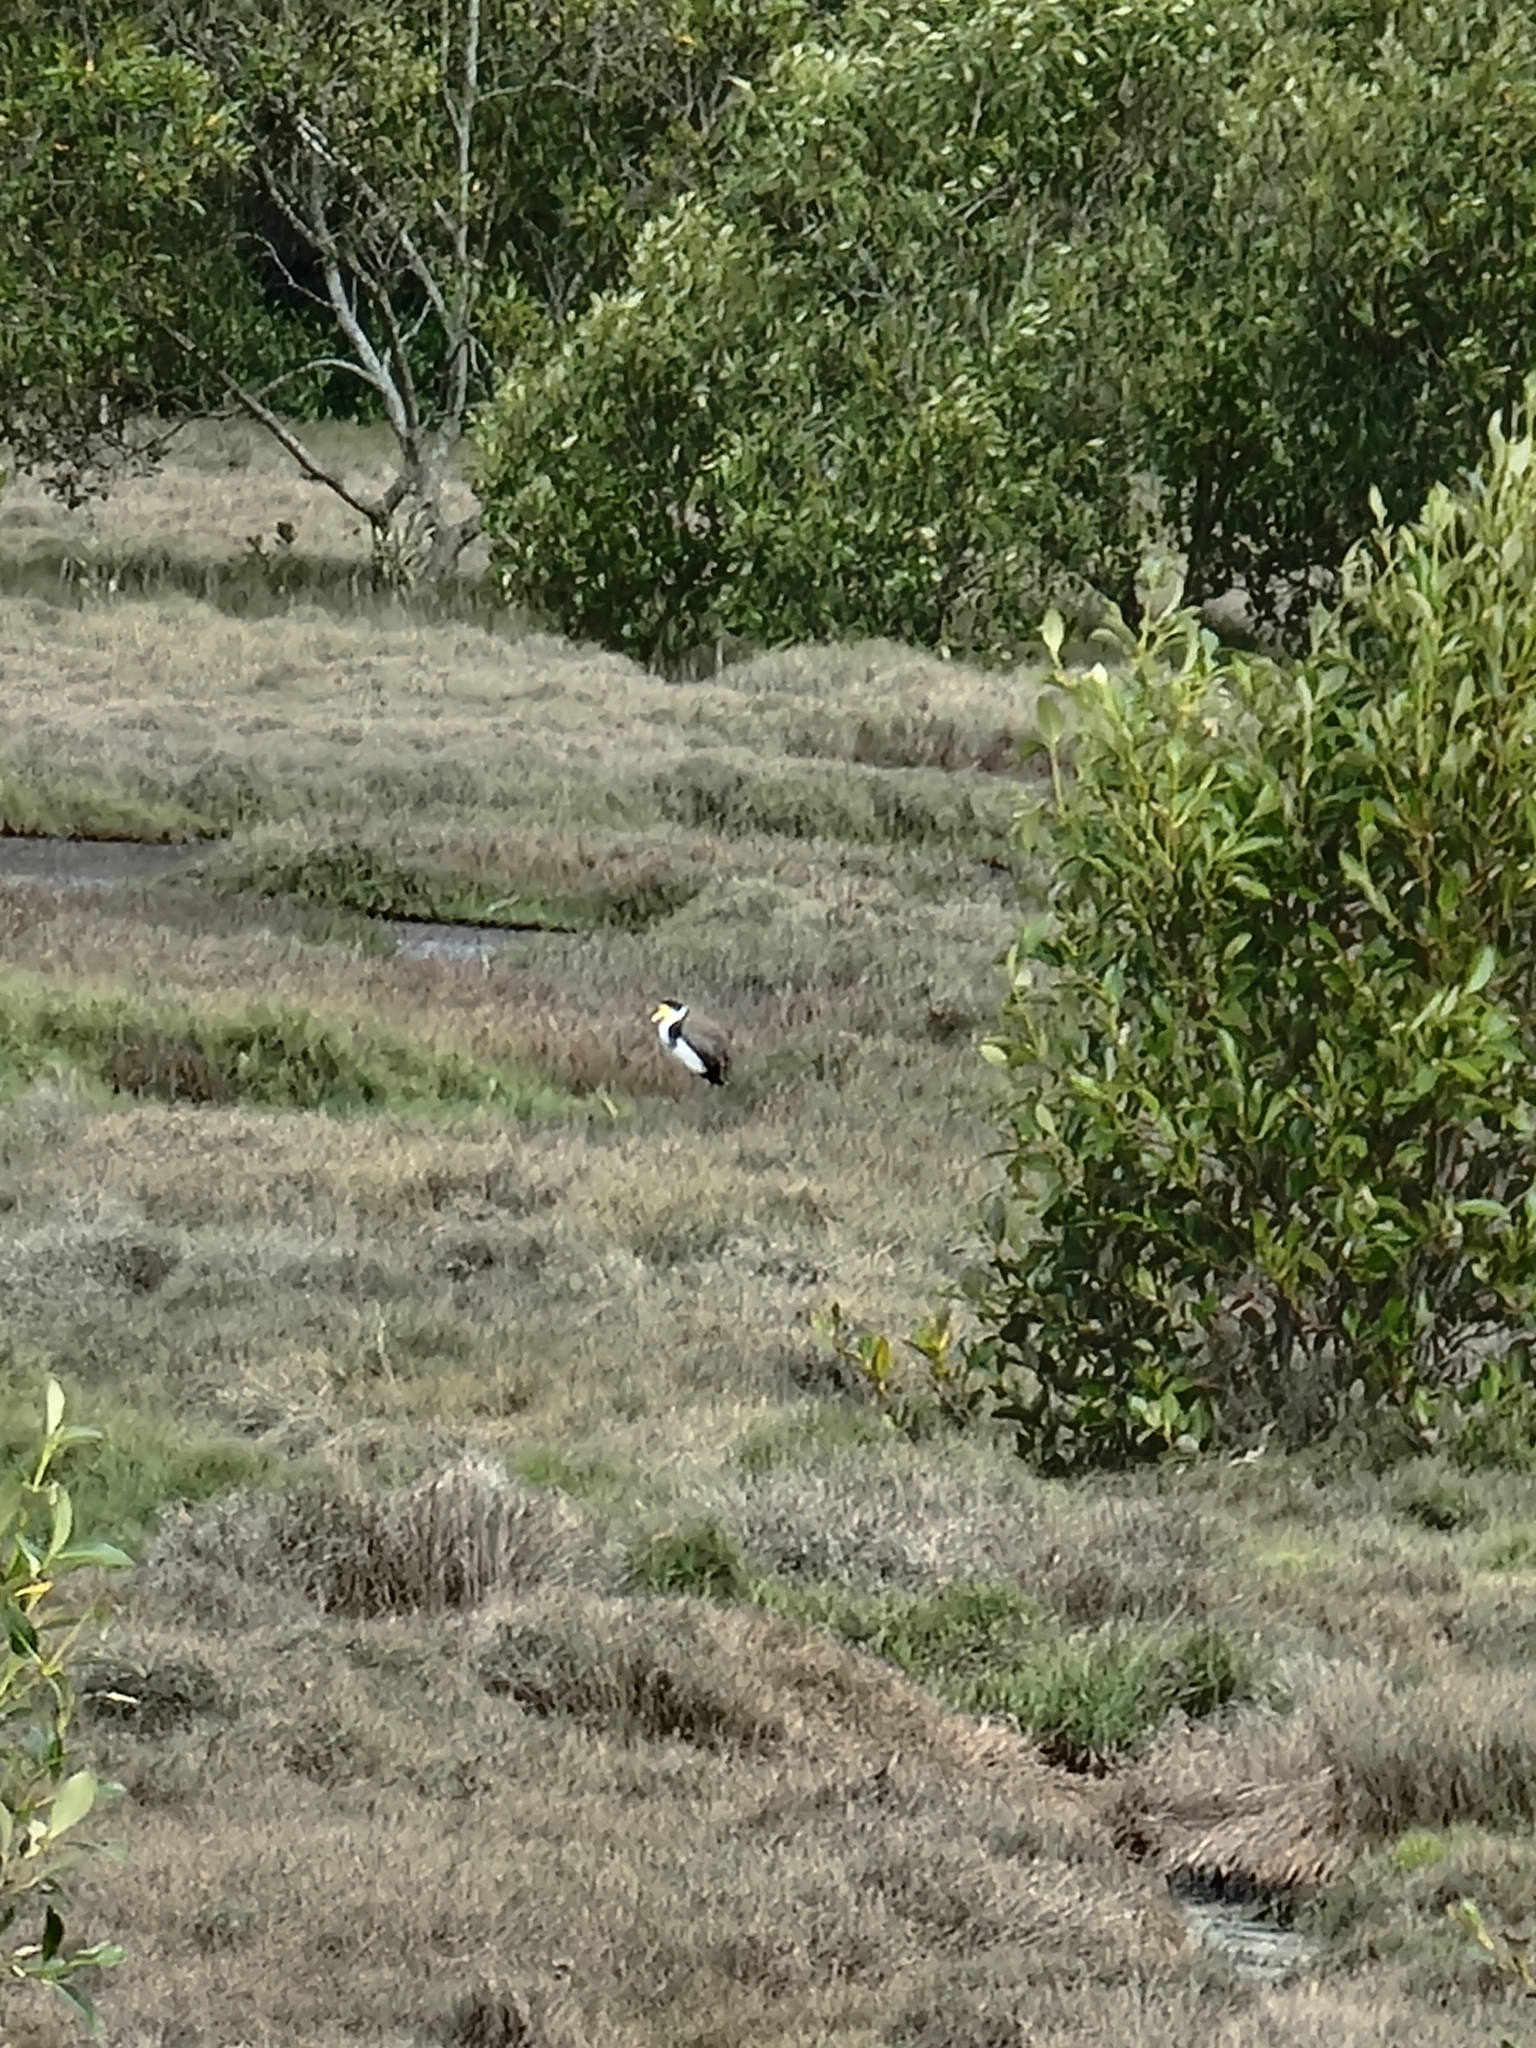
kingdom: Animalia
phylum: Chordata
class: Aves
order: Charadriiformes
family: Charadriidae
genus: Vanellus
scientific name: Vanellus miles
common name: Masked lapwing
